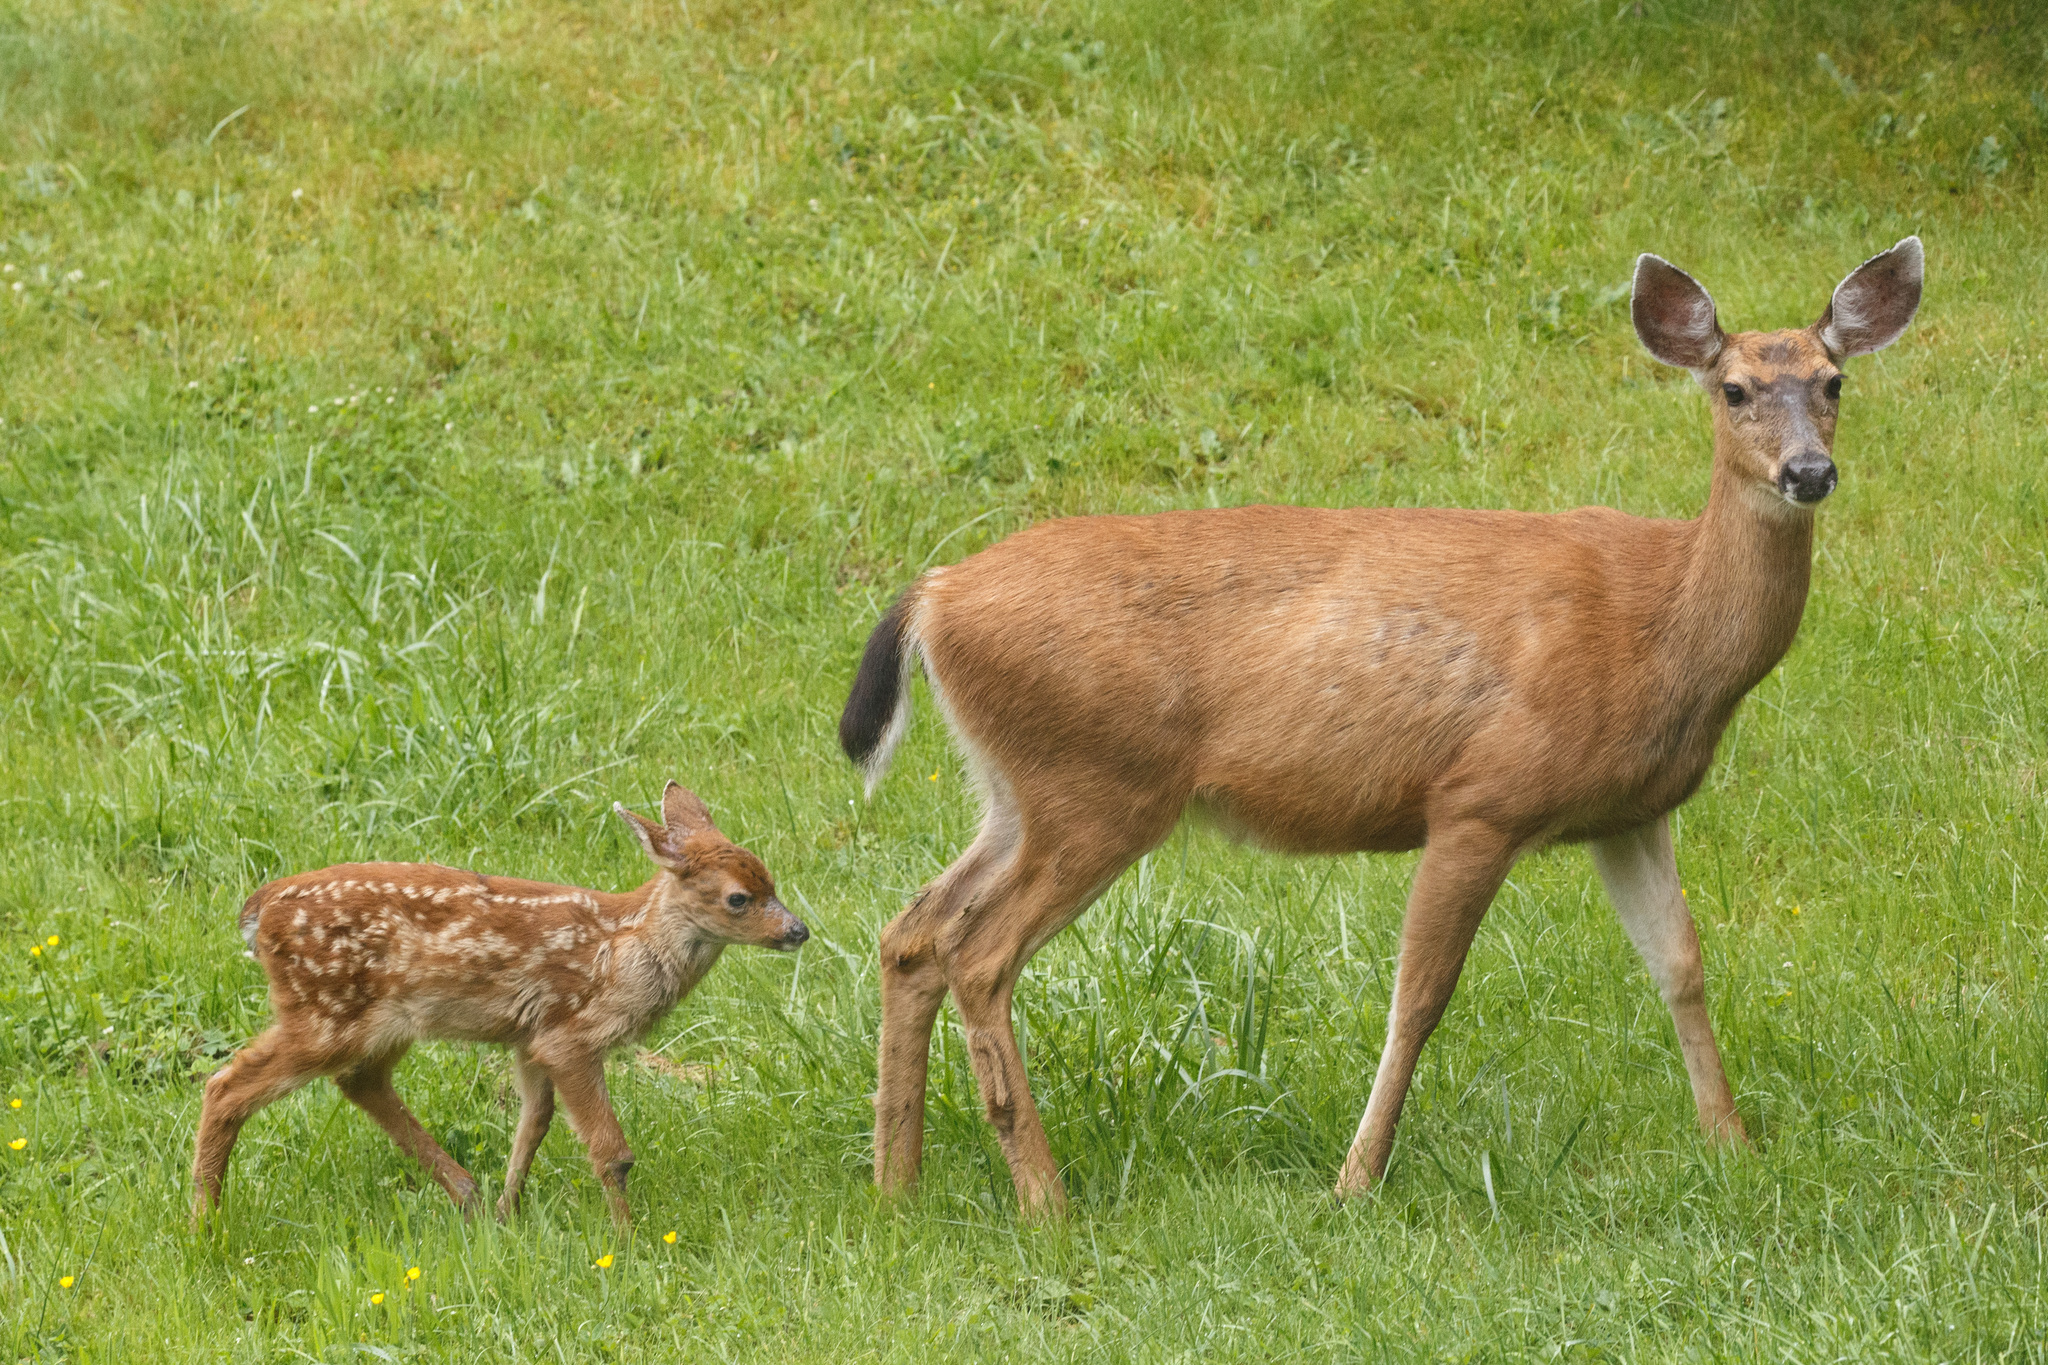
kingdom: Animalia
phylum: Chordata
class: Mammalia
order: Artiodactyla
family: Cervidae
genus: Odocoileus
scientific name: Odocoileus hemionus
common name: Mule deer
